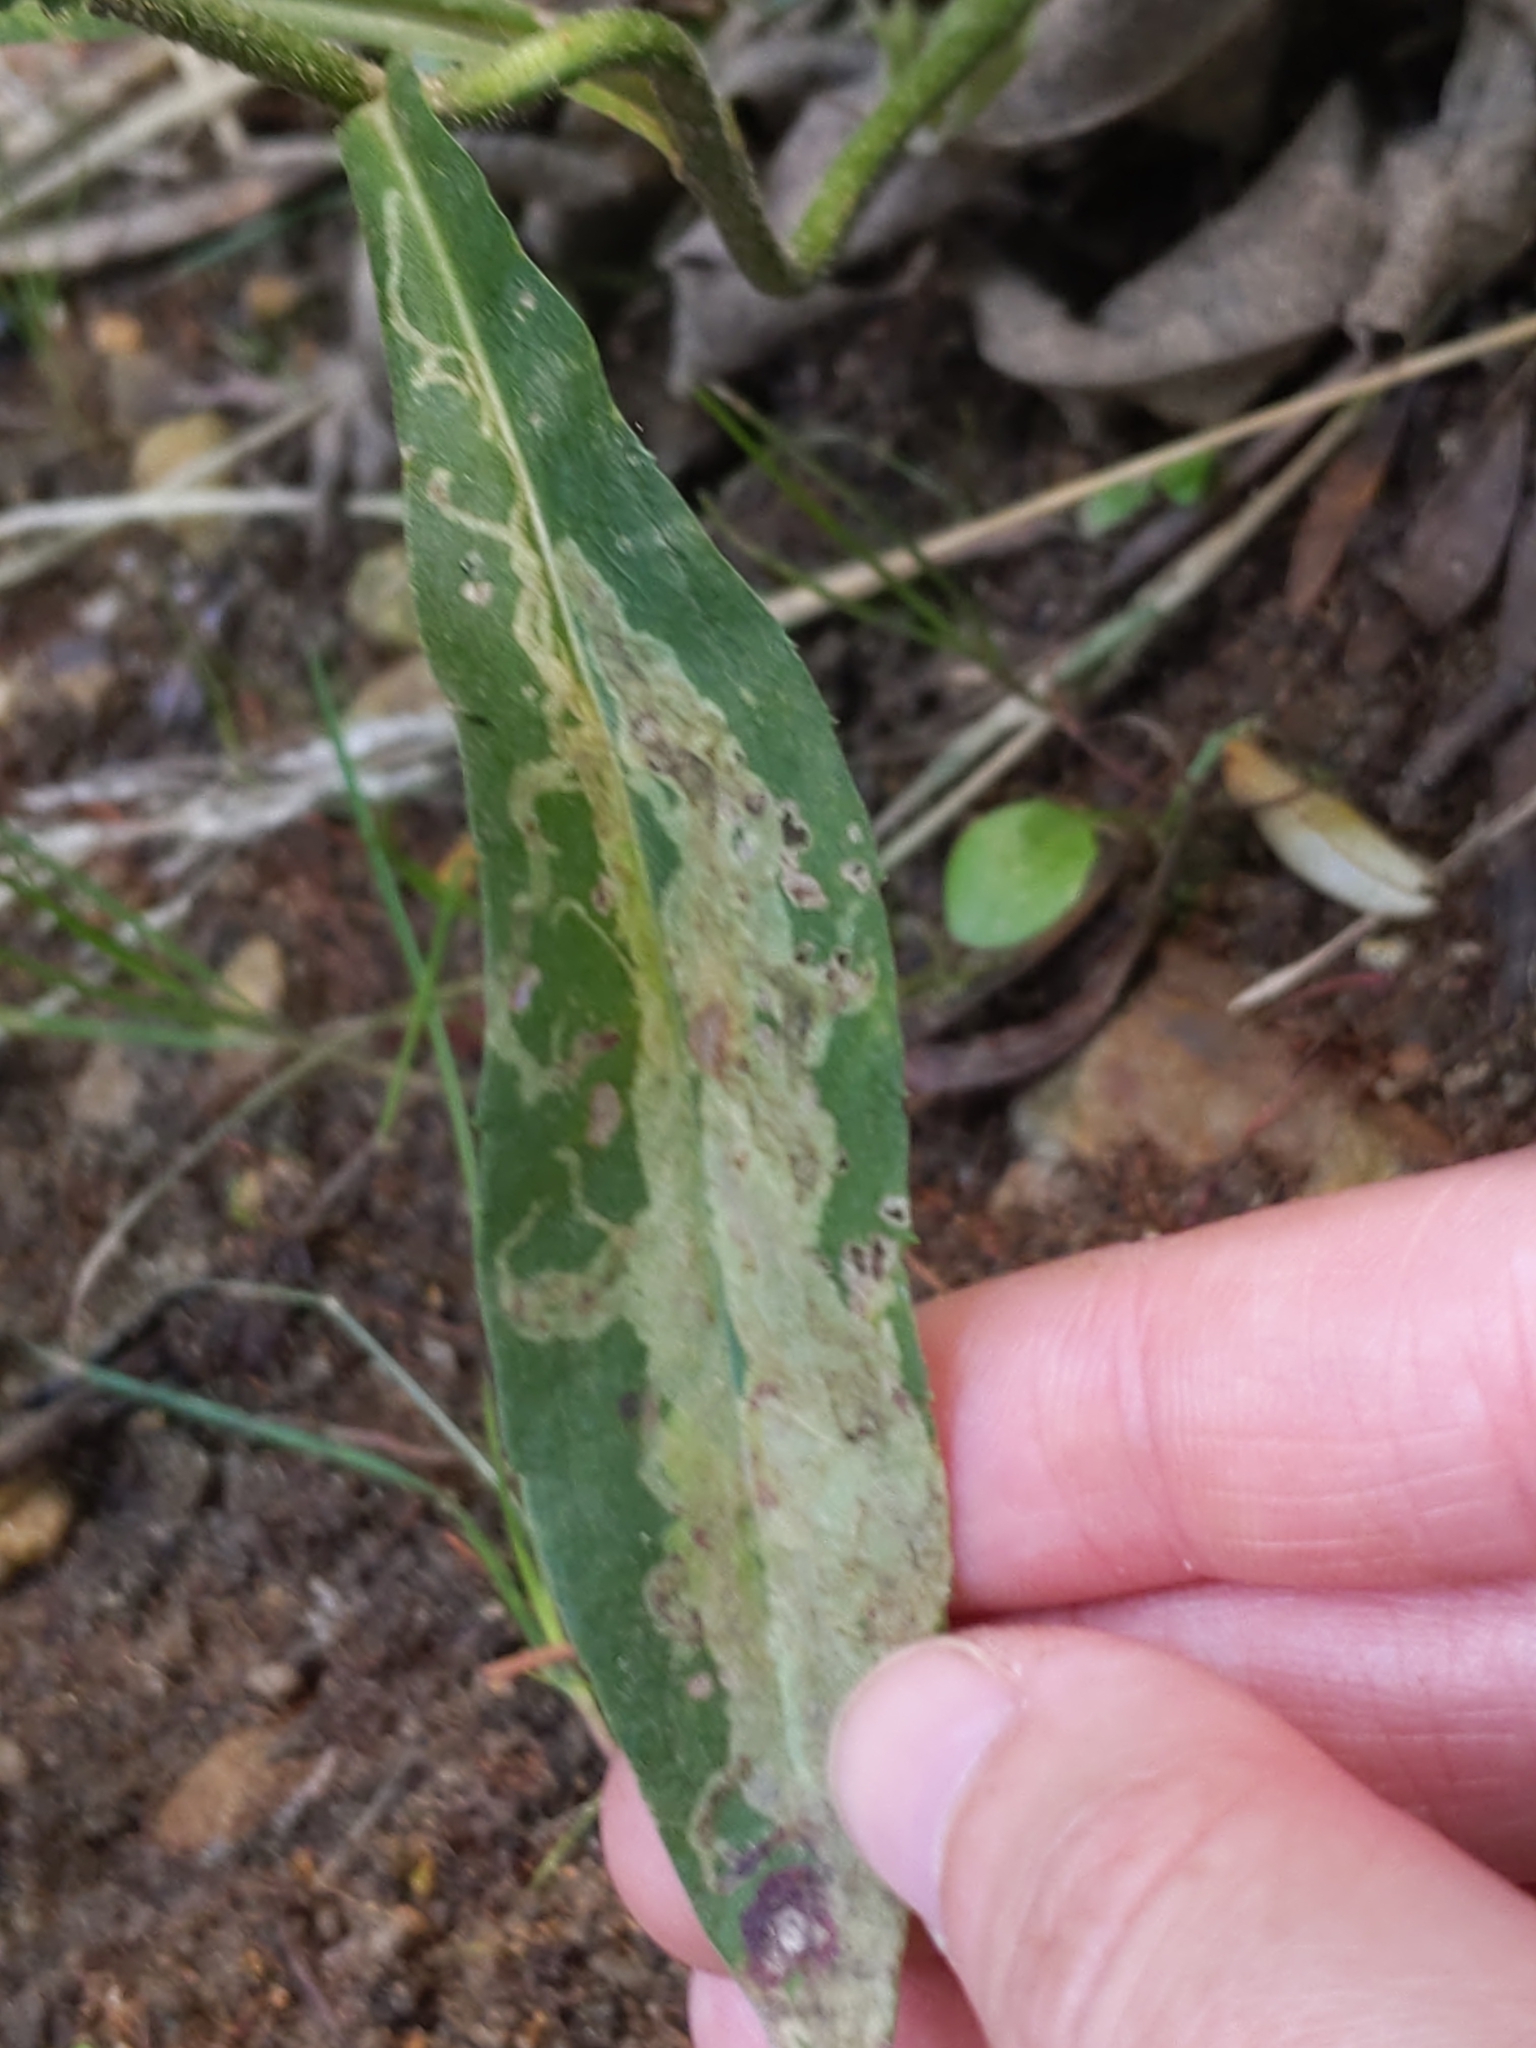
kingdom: Animalia
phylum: Arthropoda
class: Insecta
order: Diptera
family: Agromyzidae
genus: Ophiomyia
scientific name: Ophiomyia carolinensis
